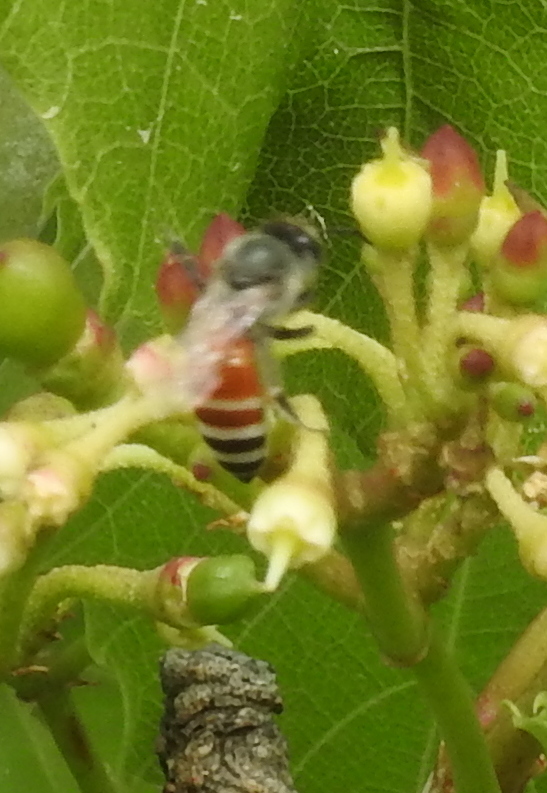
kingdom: Animalia
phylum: Arthropoda
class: Insecta
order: Hymenoptera
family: Apidae
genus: Apis
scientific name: Apis florea
